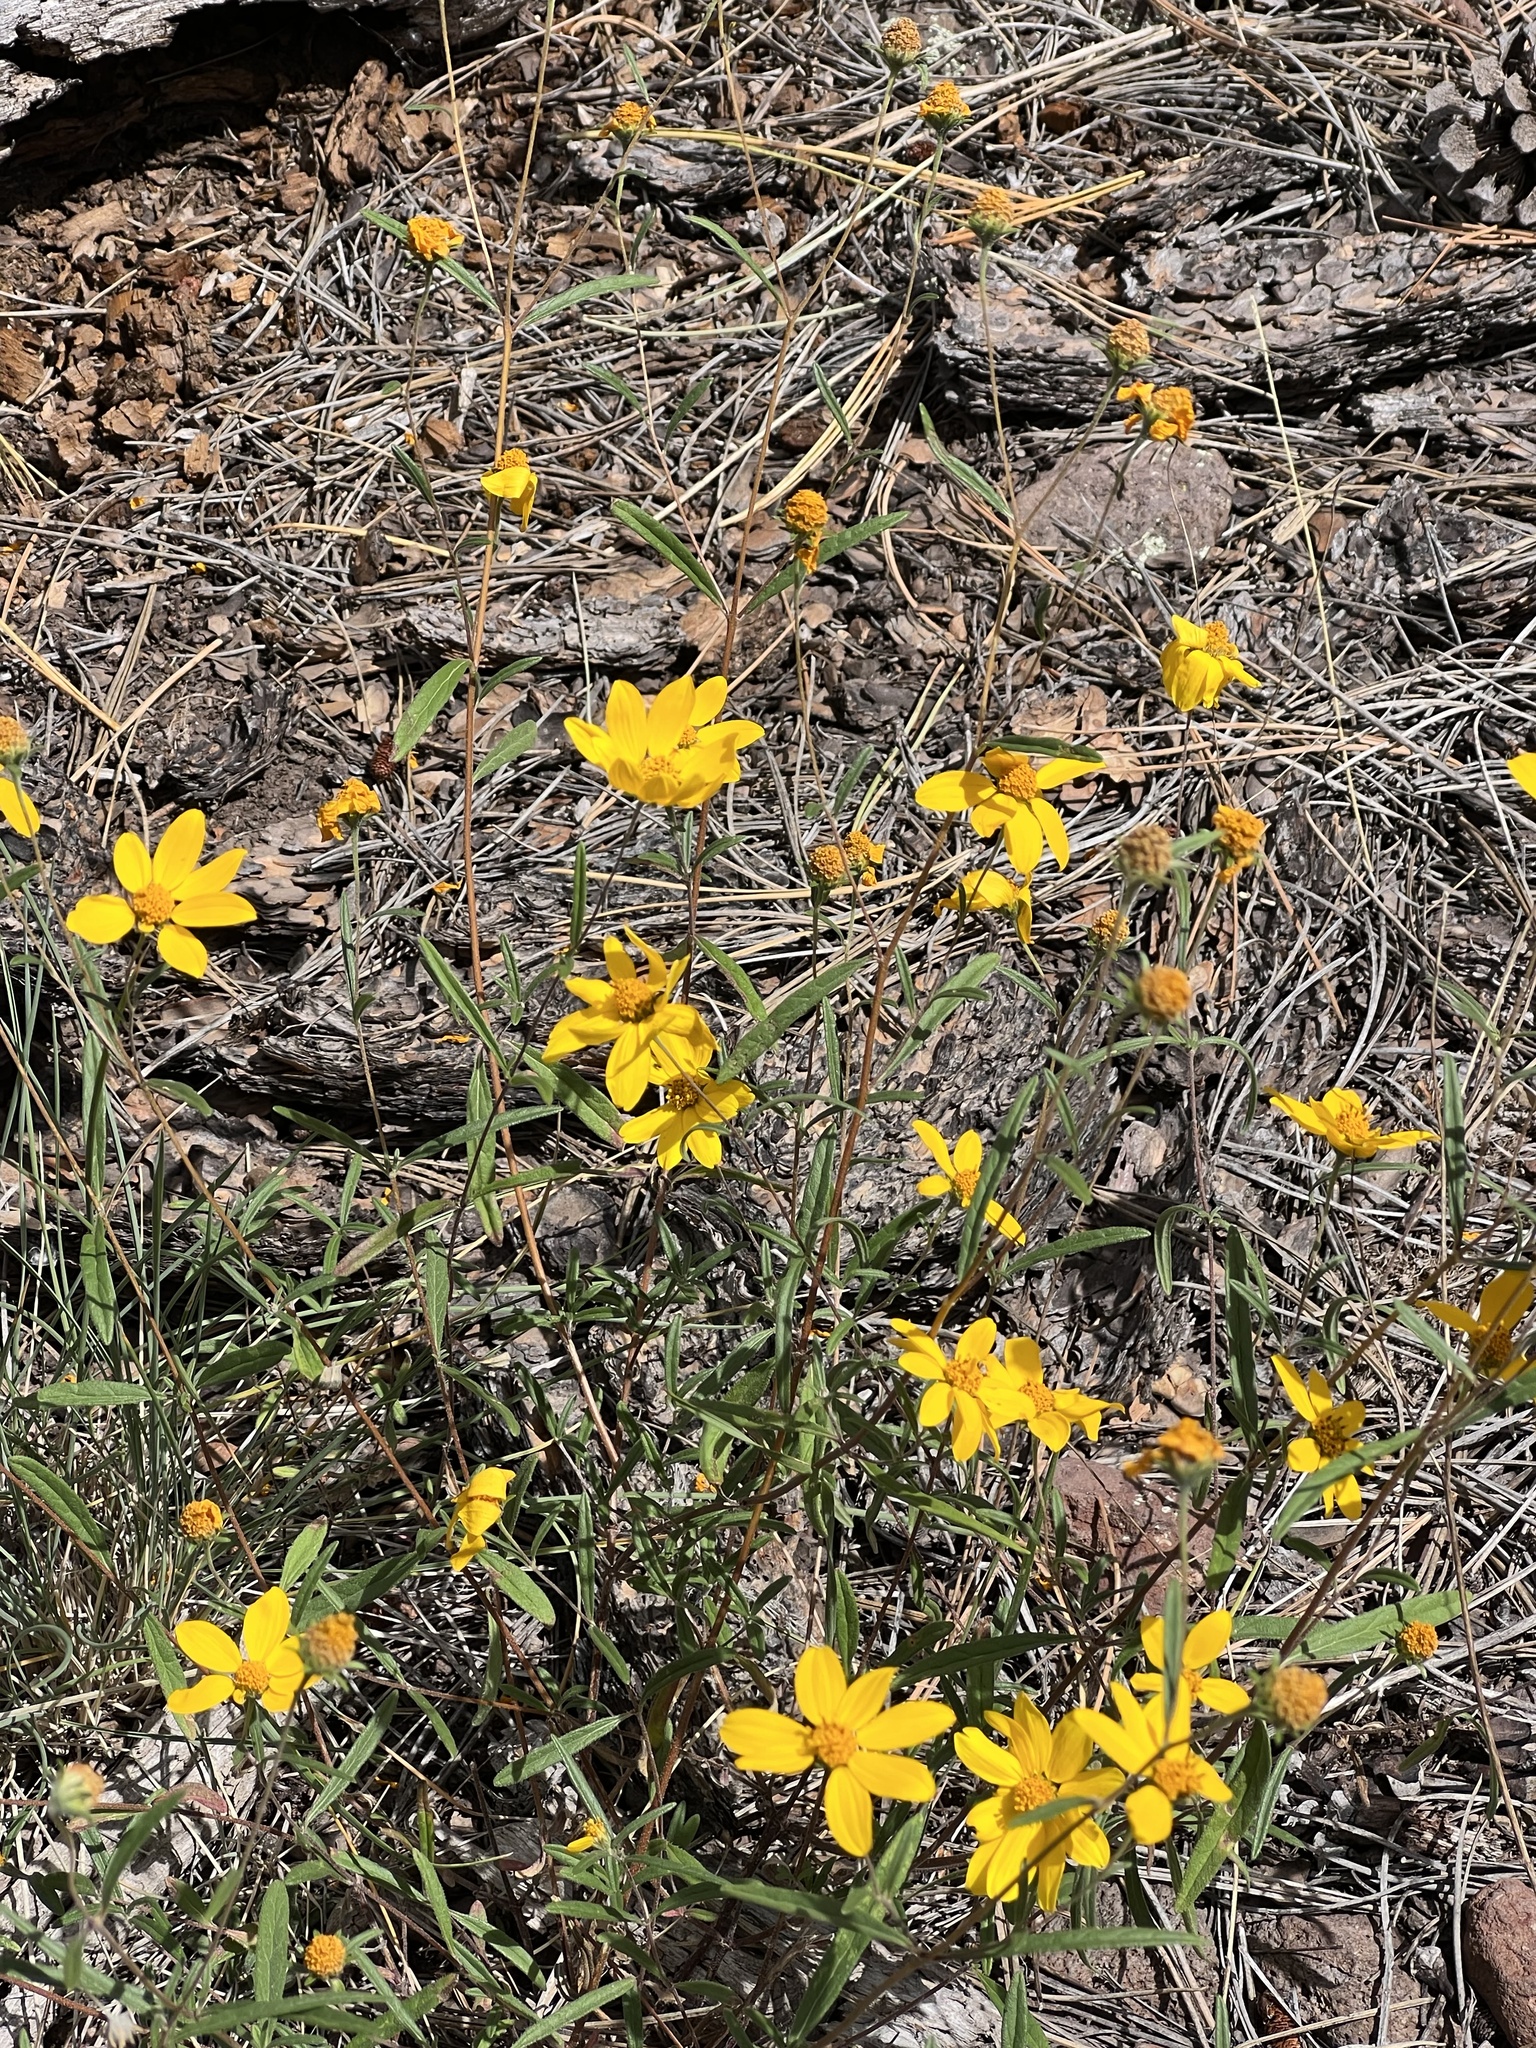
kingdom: Plantae
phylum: Tracheophyta
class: Magnoliopsida
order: Asterales
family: Asteraceae
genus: Heliomeris
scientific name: Heliomeris multiflora
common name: Showy goldeneye
